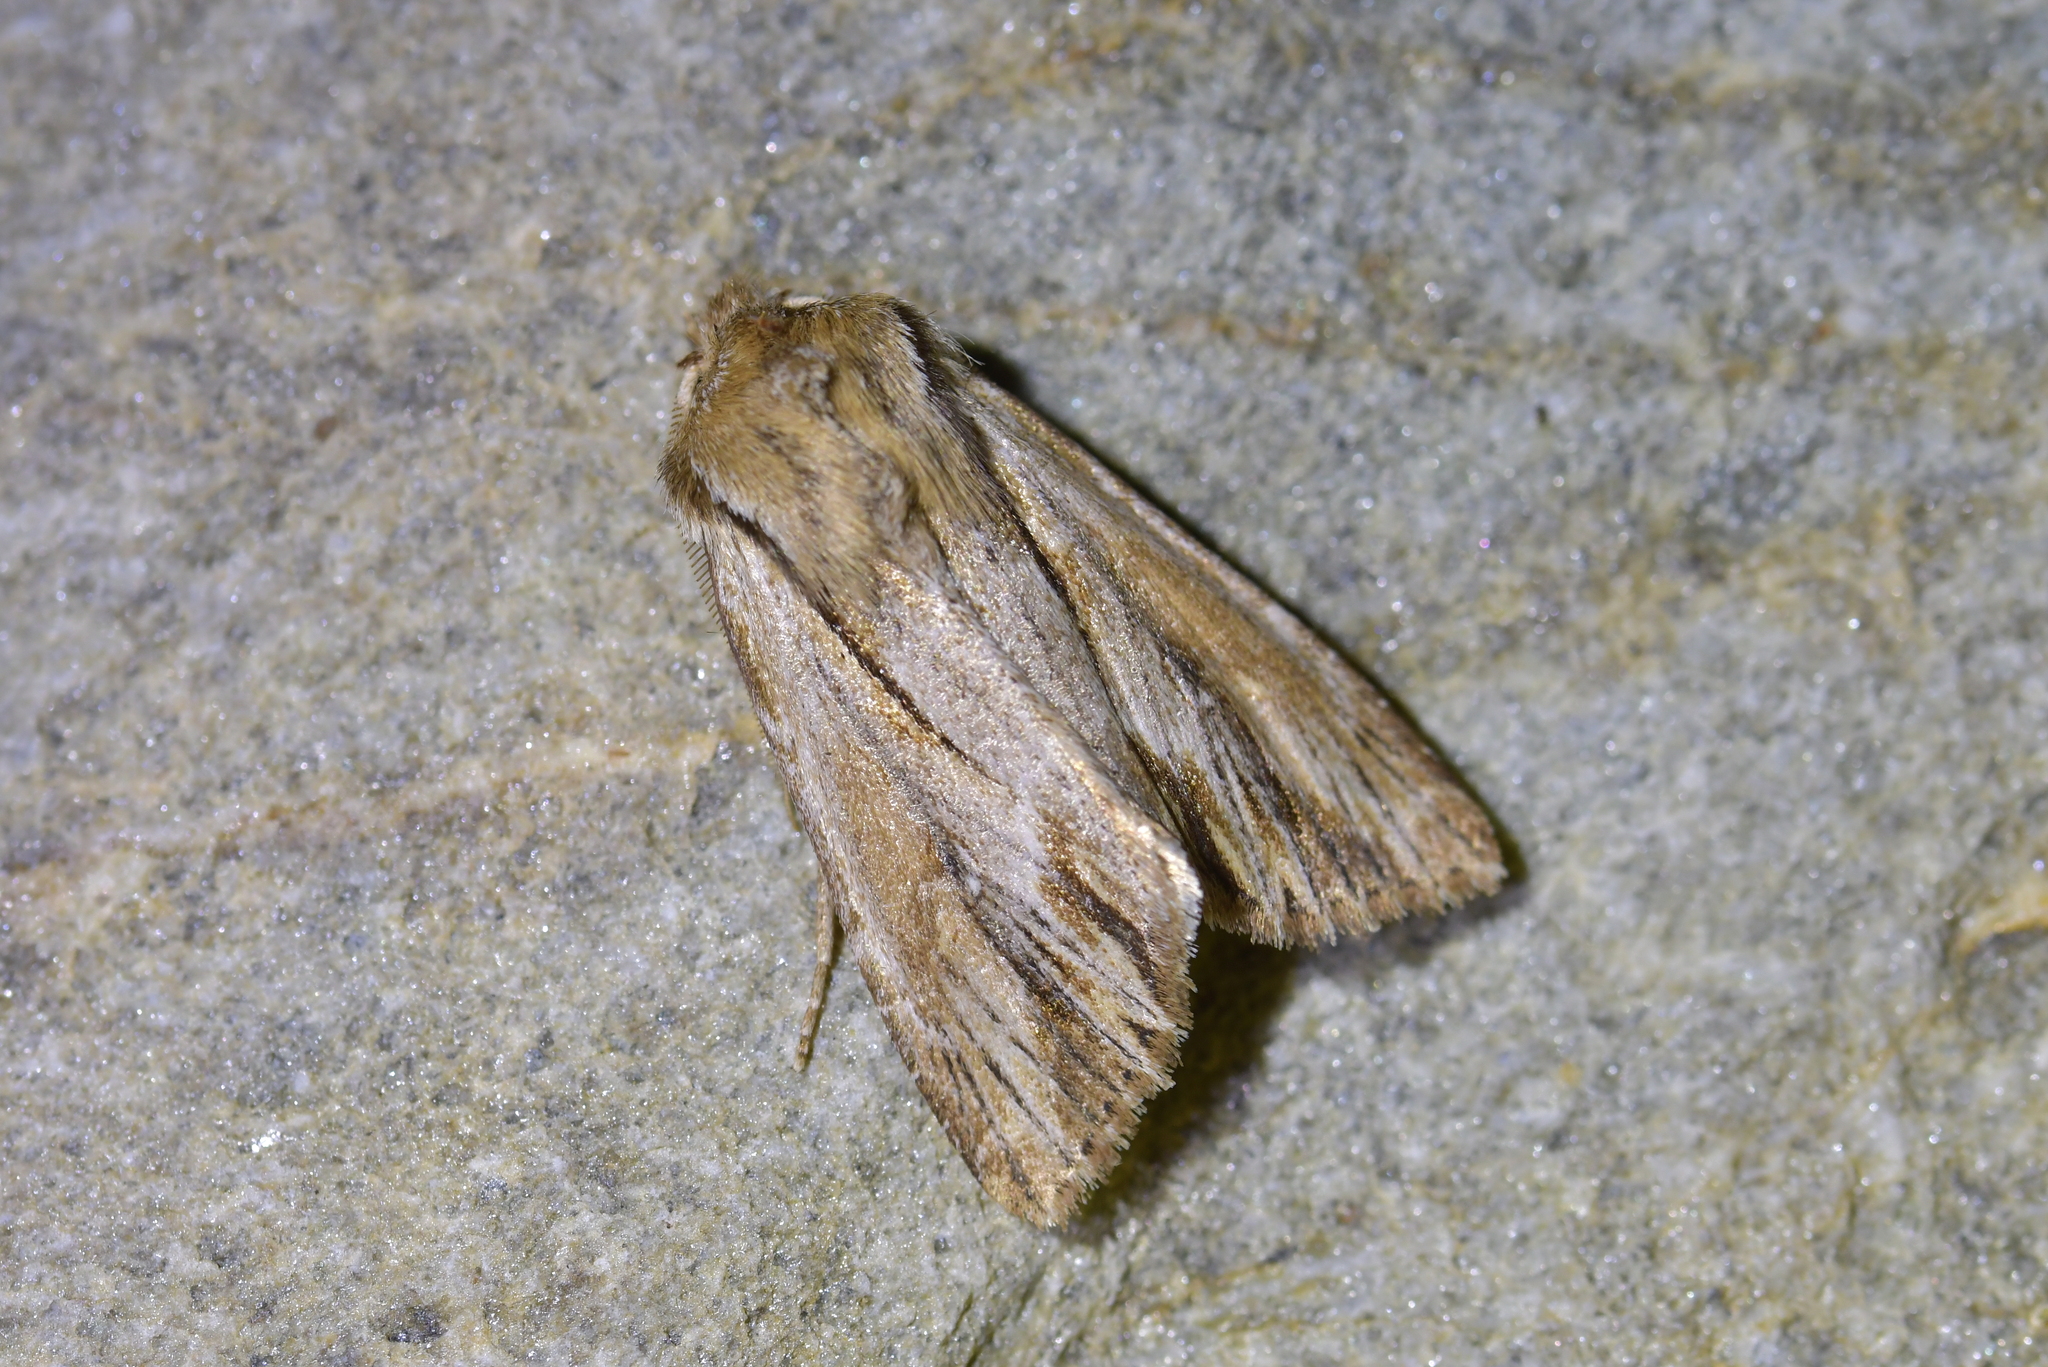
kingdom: Animalia
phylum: Arthropoda
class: Insecta
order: Lepidoptera
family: Noctuidae
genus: Ichneutica
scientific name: Ichneutica
